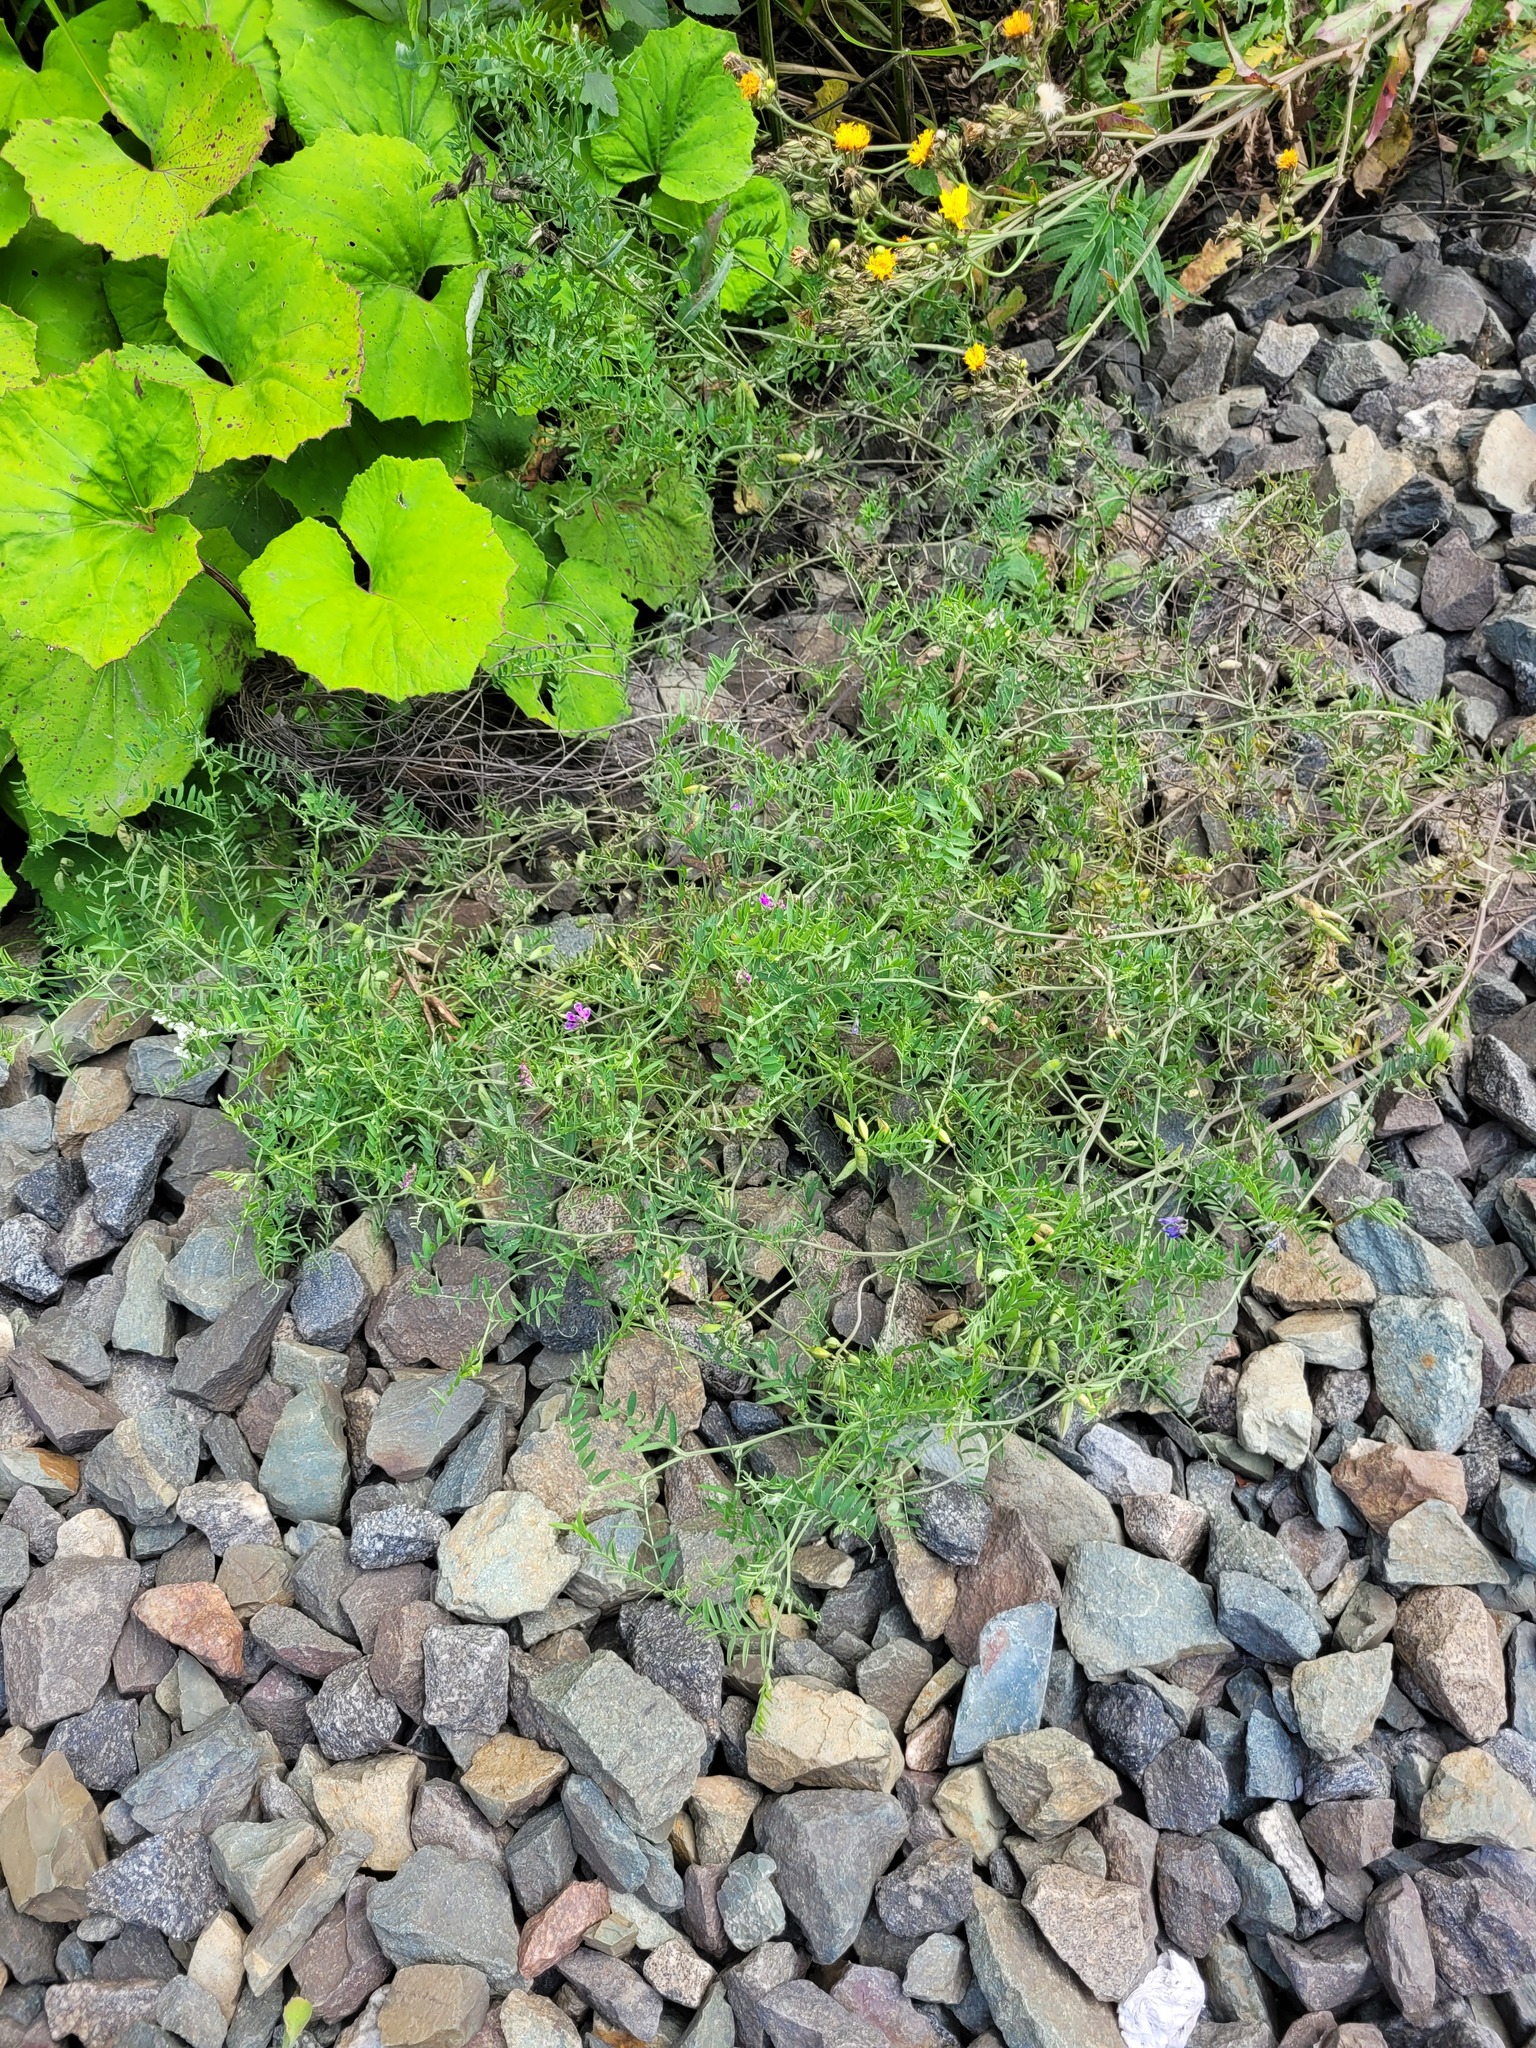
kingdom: Plantae
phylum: Tracheophyta
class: Magnoliopsida
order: Fabales
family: Fabaceae
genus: Vicia
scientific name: Vicia cracca
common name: Bird vetch
